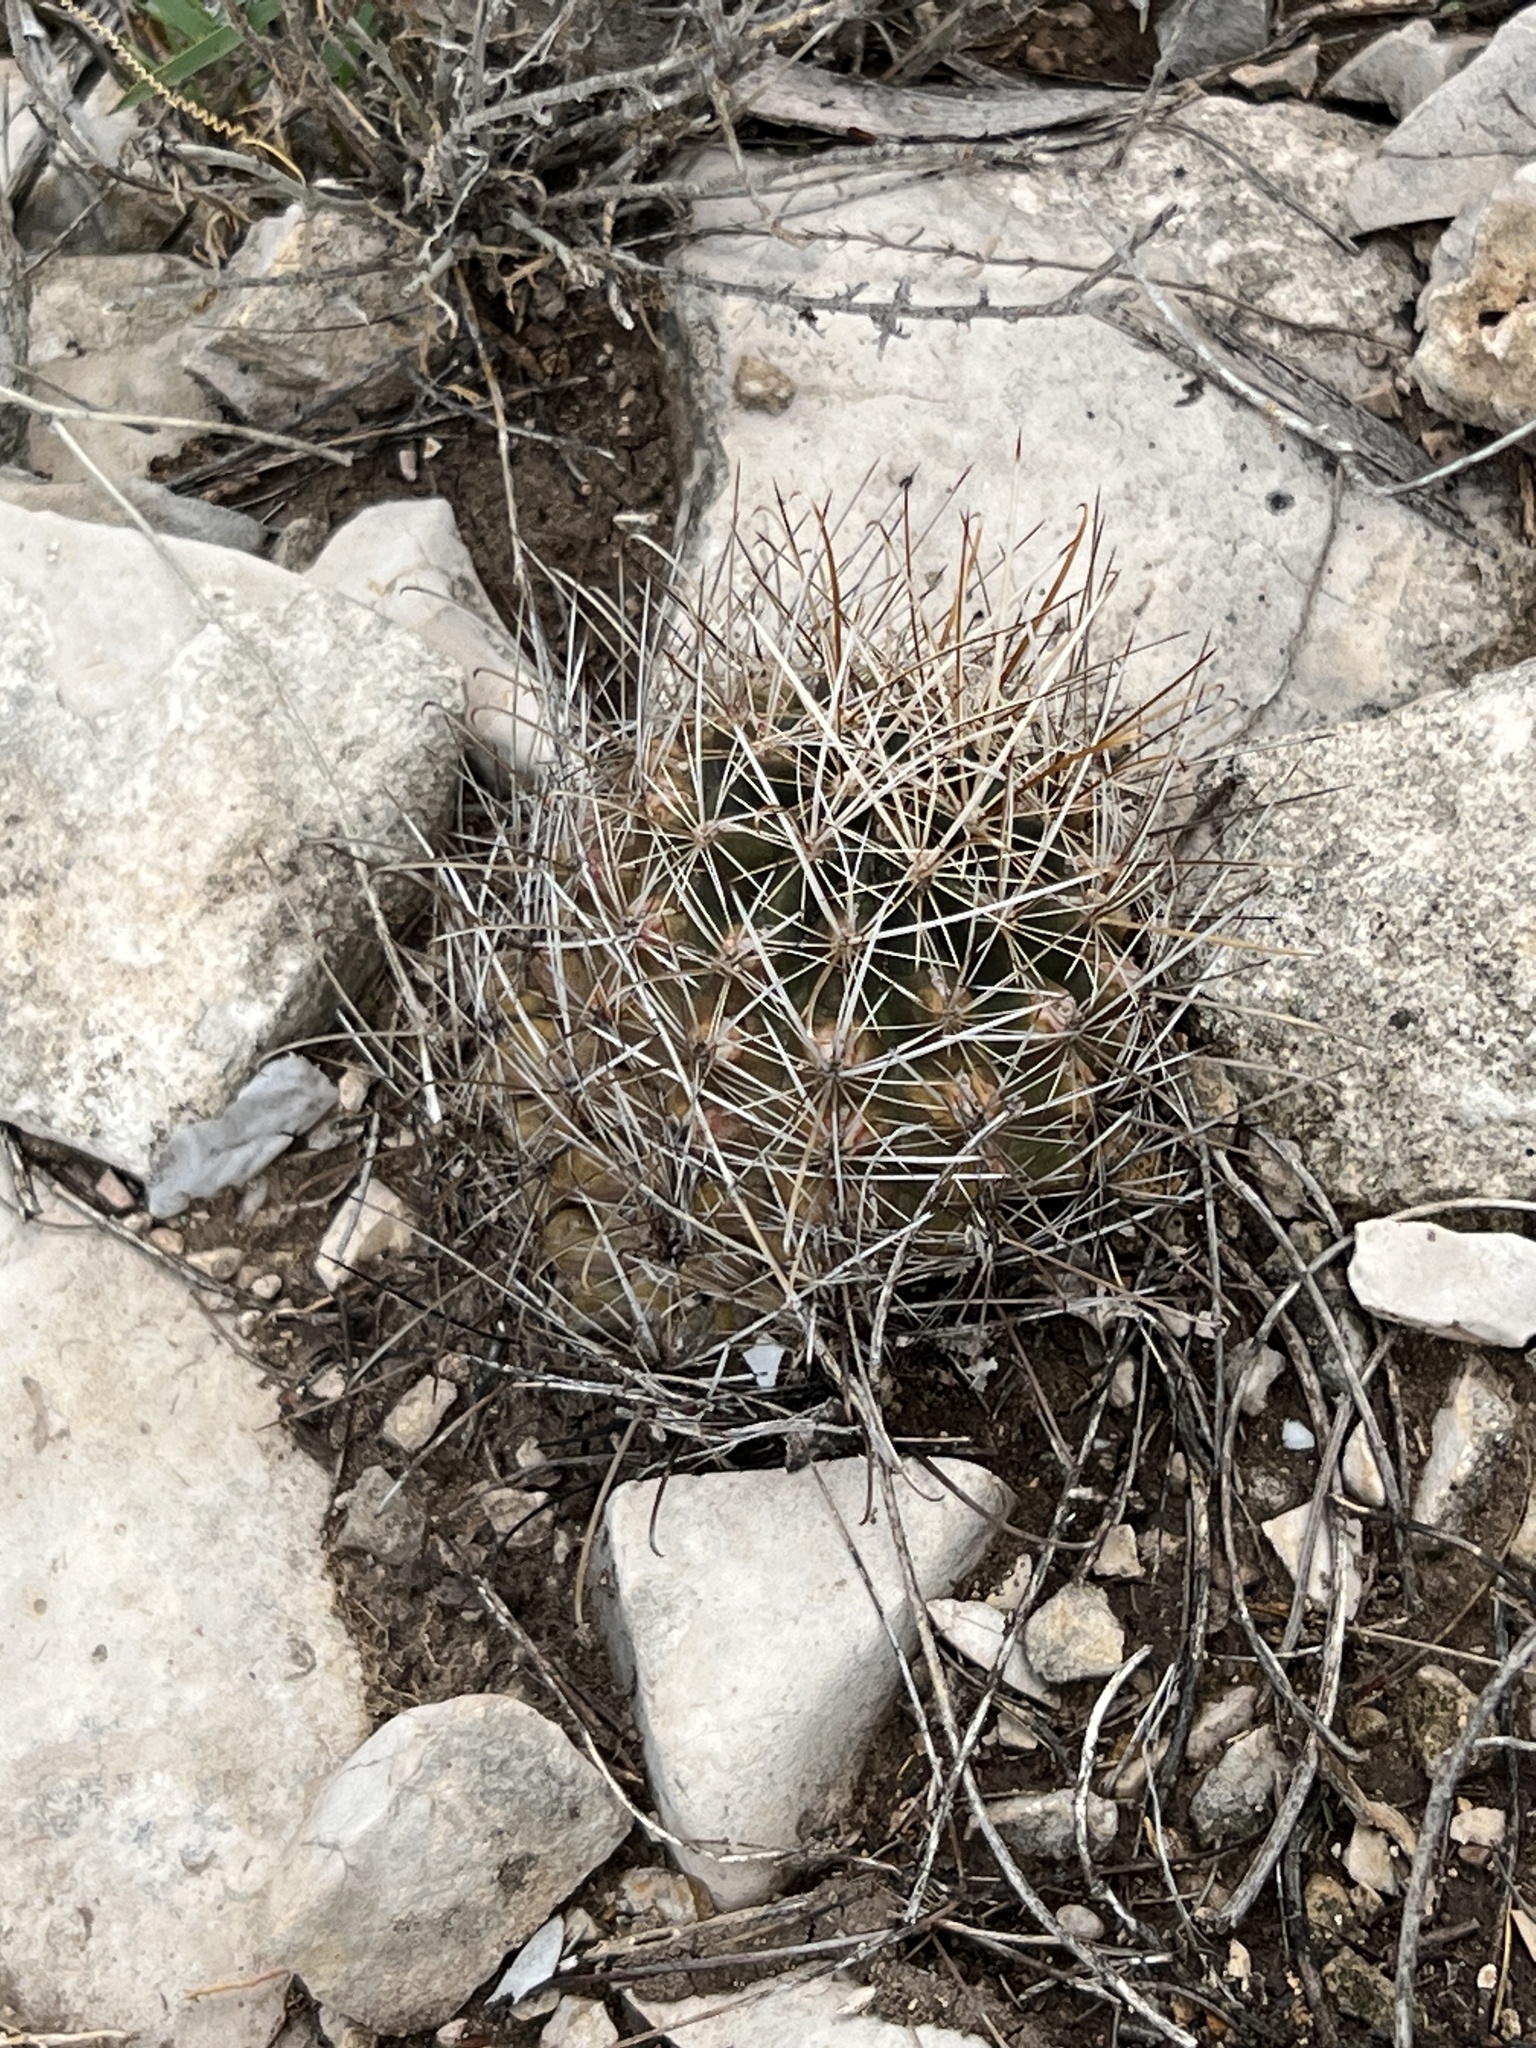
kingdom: Plantae
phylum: Tracheophyta
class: Magnoliopsida
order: Caryophyllales
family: Cactaceae
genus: Sclerocactus
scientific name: Sclerocactus brevihamatus
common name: Engelmann's fishhook cactus
